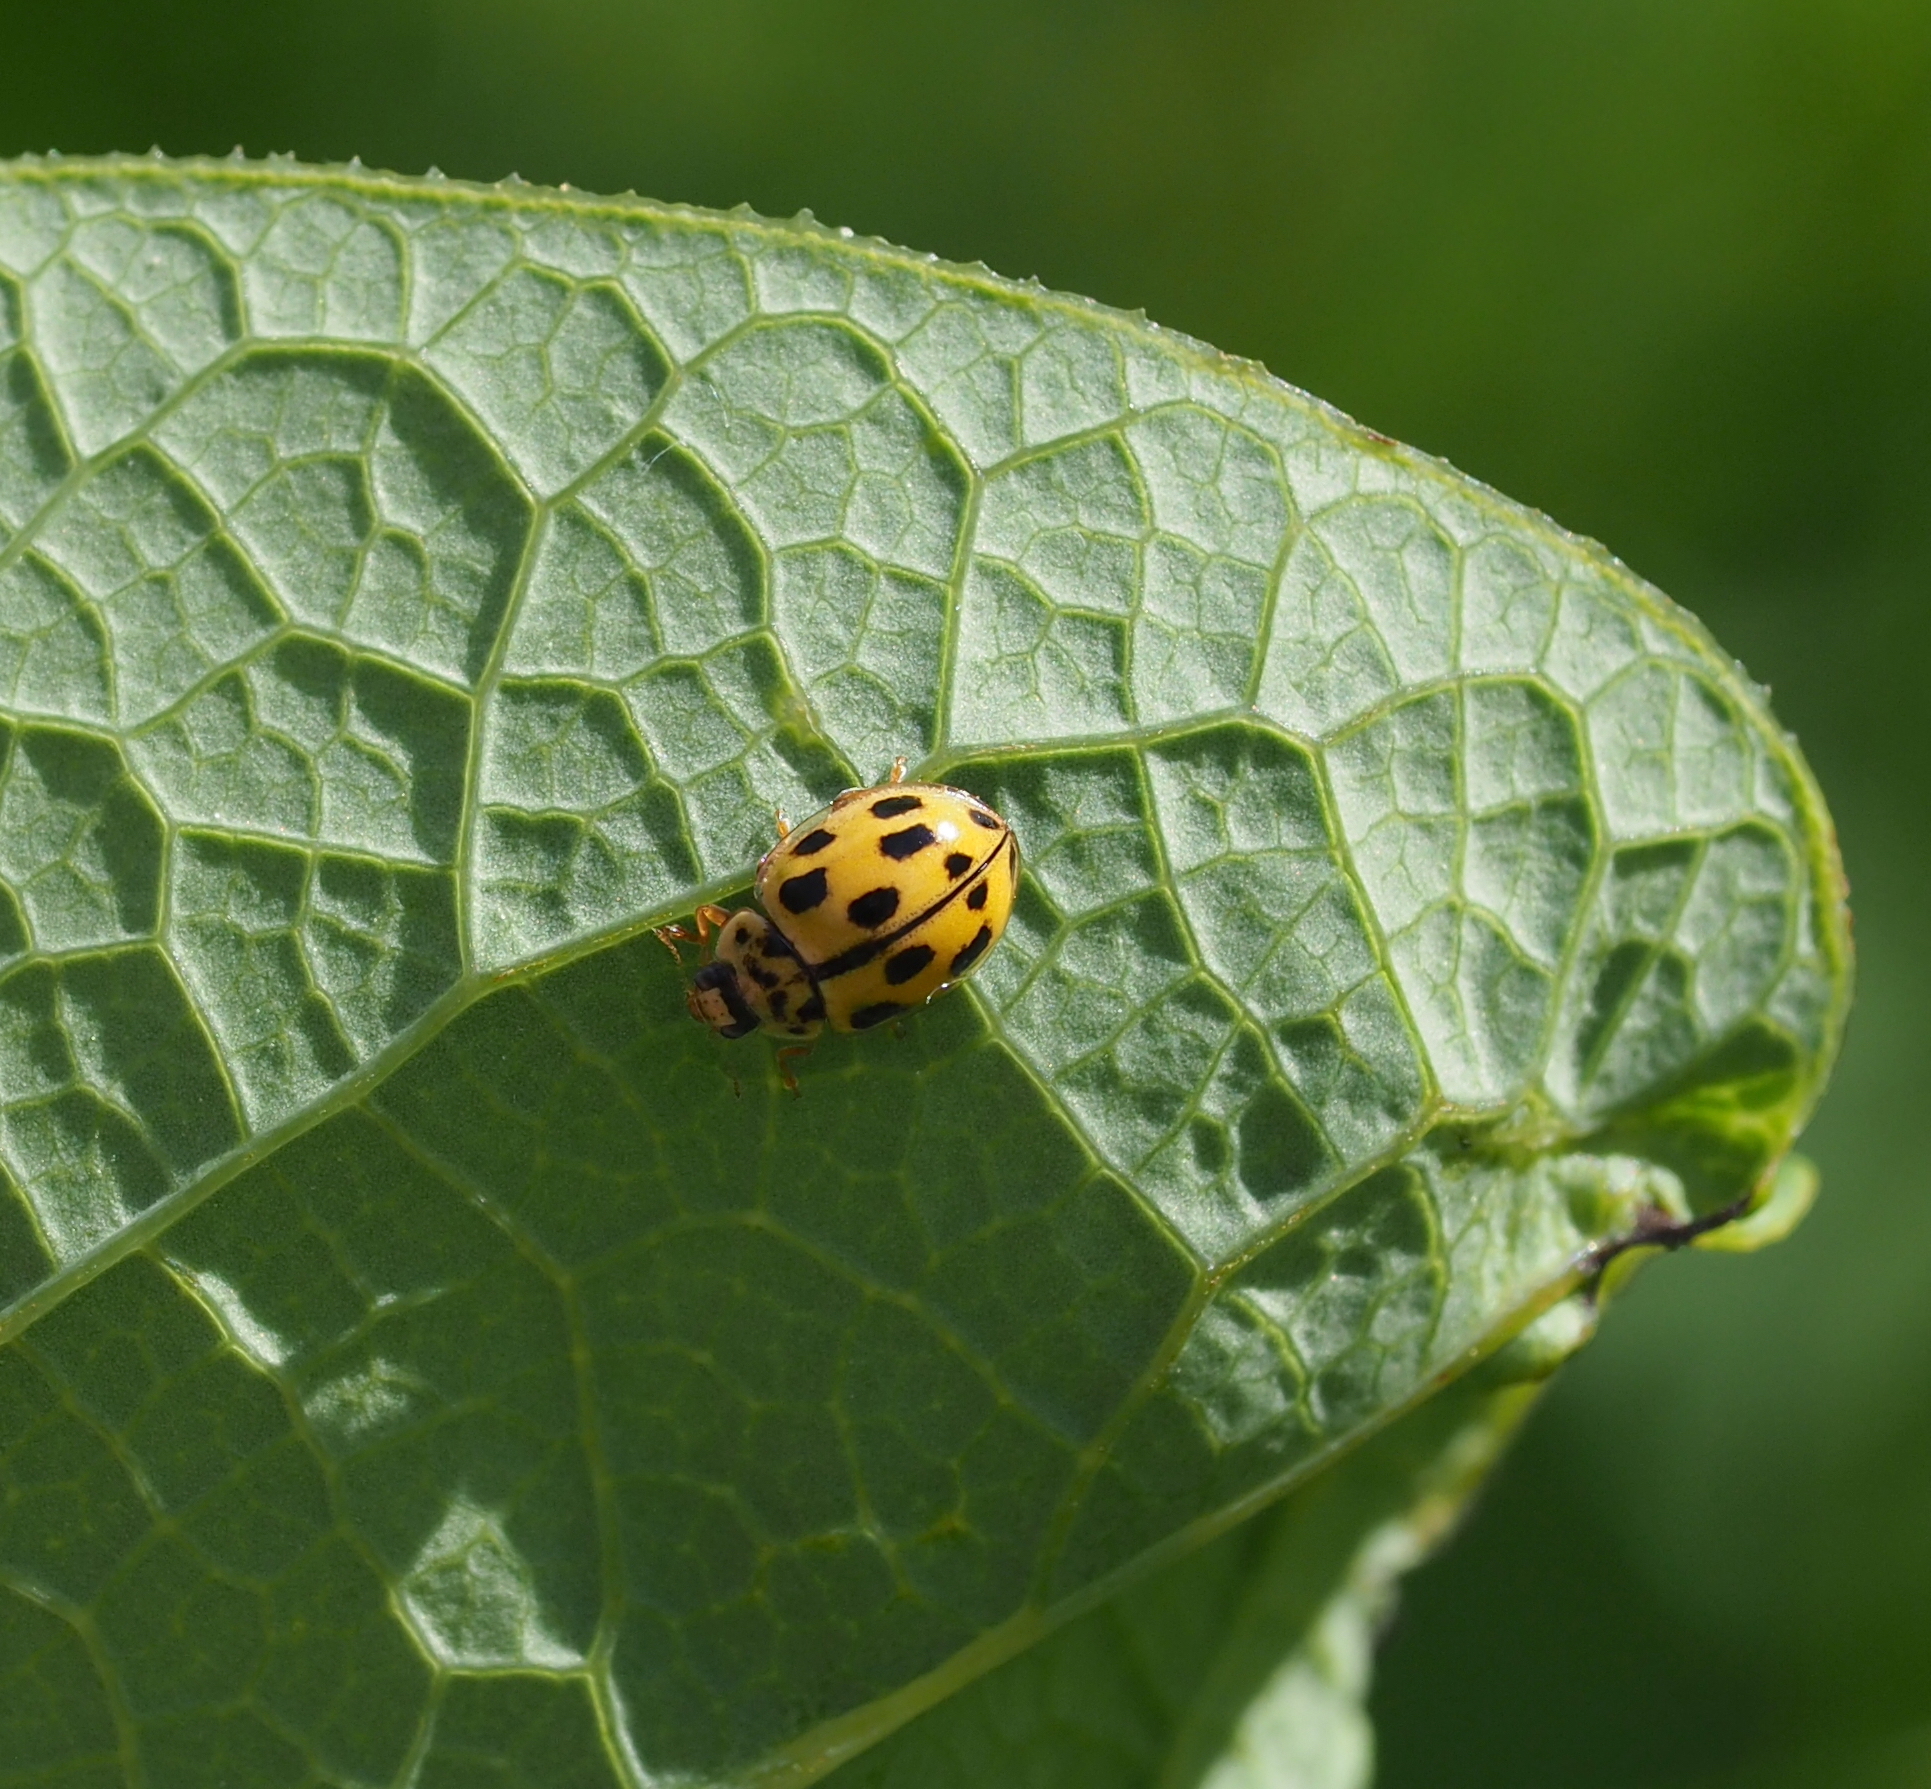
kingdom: Animalia
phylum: Arthropoda
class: Insecta
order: Coleoptera
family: Coccinellidae
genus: Propylaea
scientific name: Propylaea quatuordecimpunctata
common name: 14-spotted ladybird beetle
